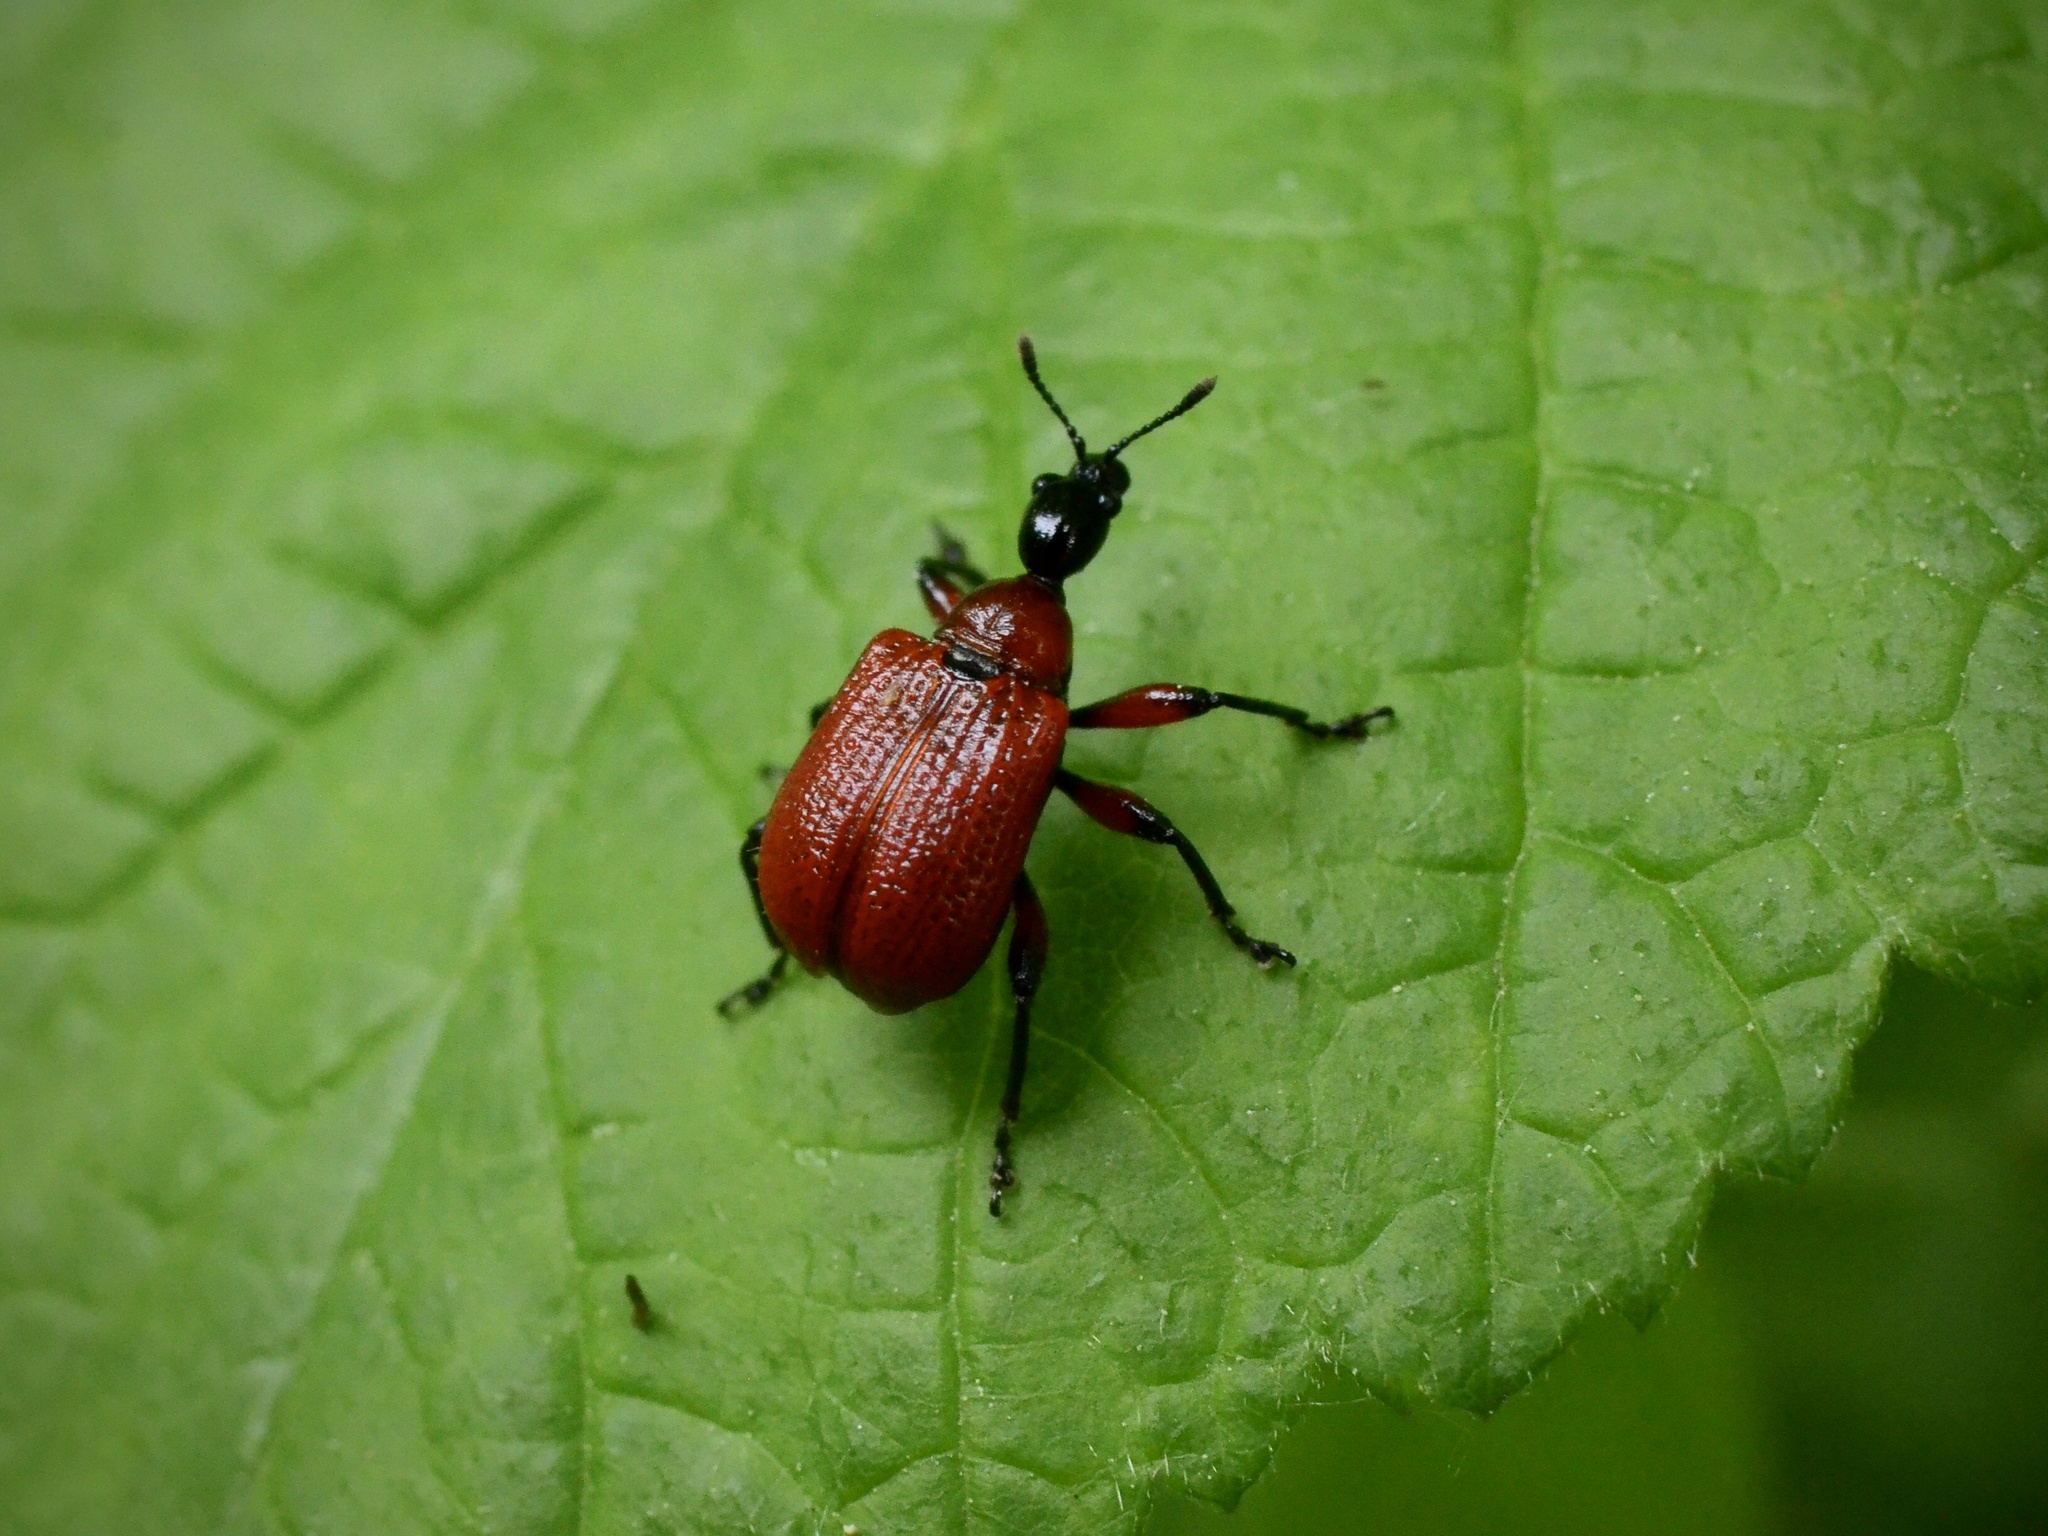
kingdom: Animalia
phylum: Arthropoda
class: Insecta
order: Coleoptera
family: Attelabidae
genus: Apoderus
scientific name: Apoderus coryli
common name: Hazel leaf roller
